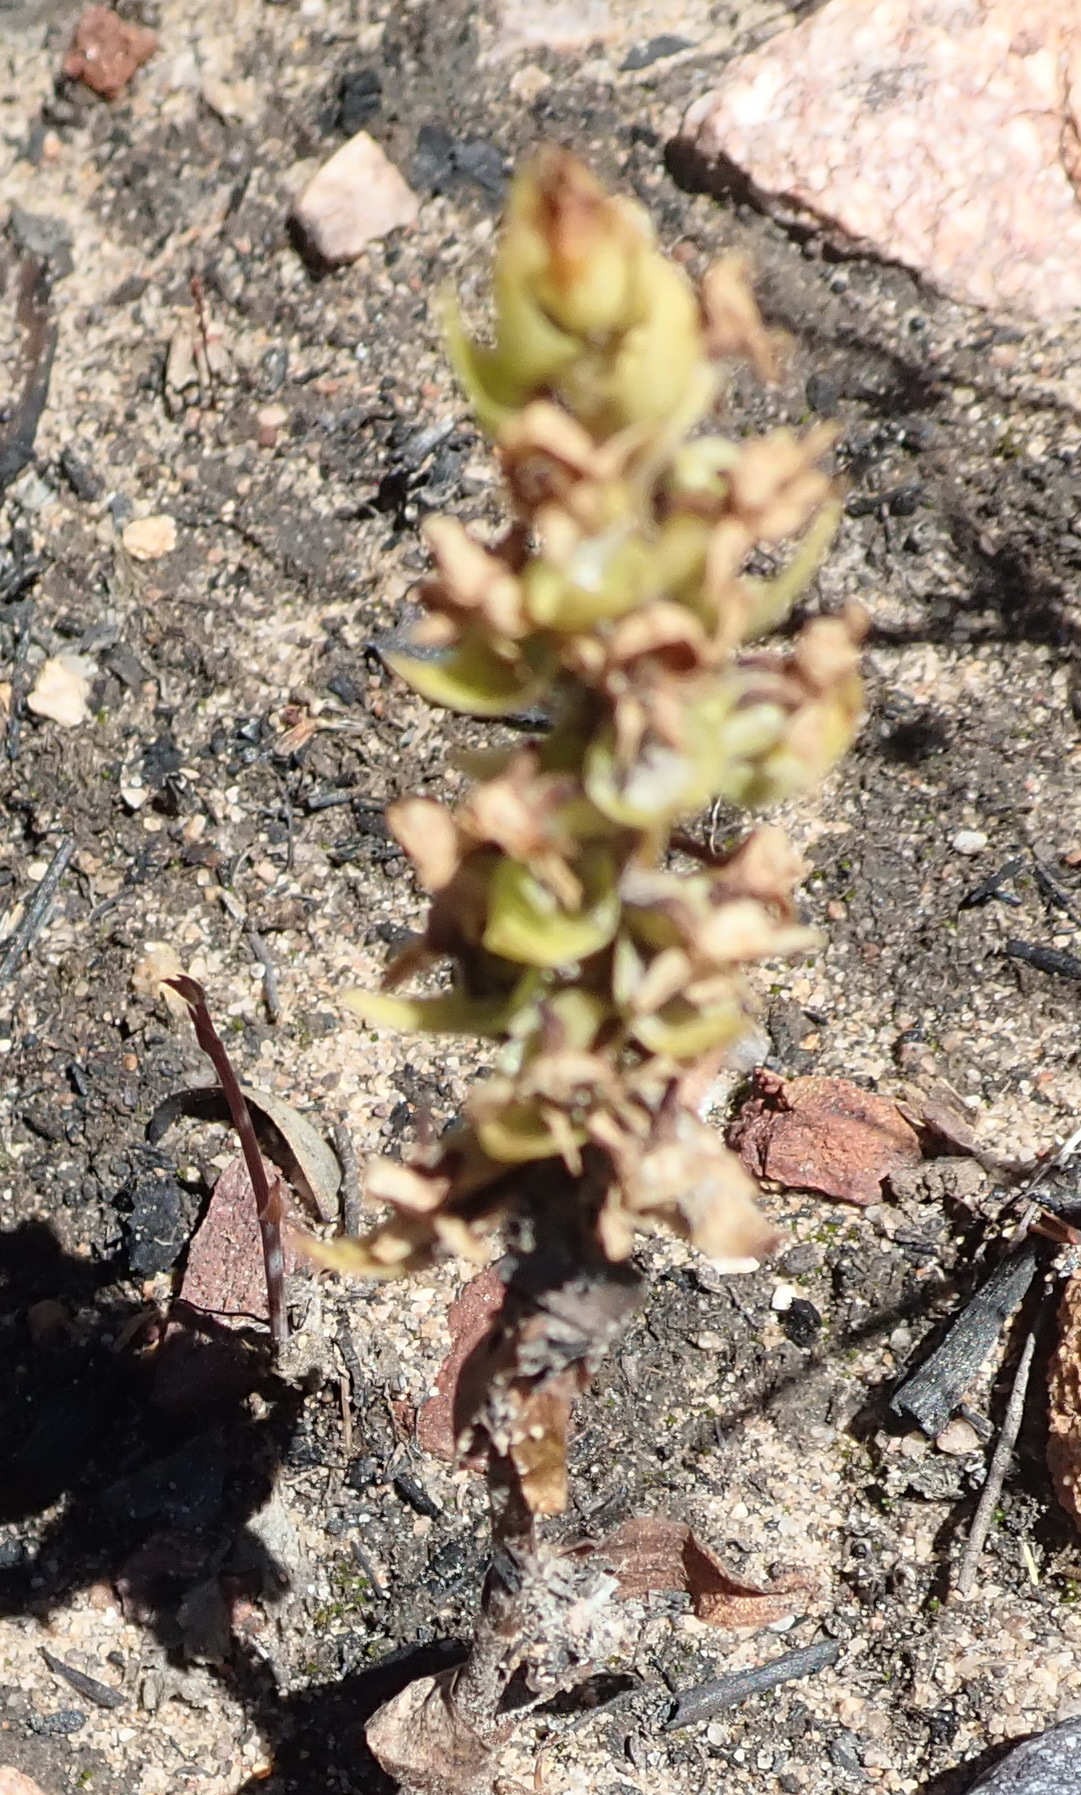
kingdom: Plantae
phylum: Tracheophyta
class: Liliopsida
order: Asparagales
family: Orchidaceae
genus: Satyrium
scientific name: Satyrium bicallosum
